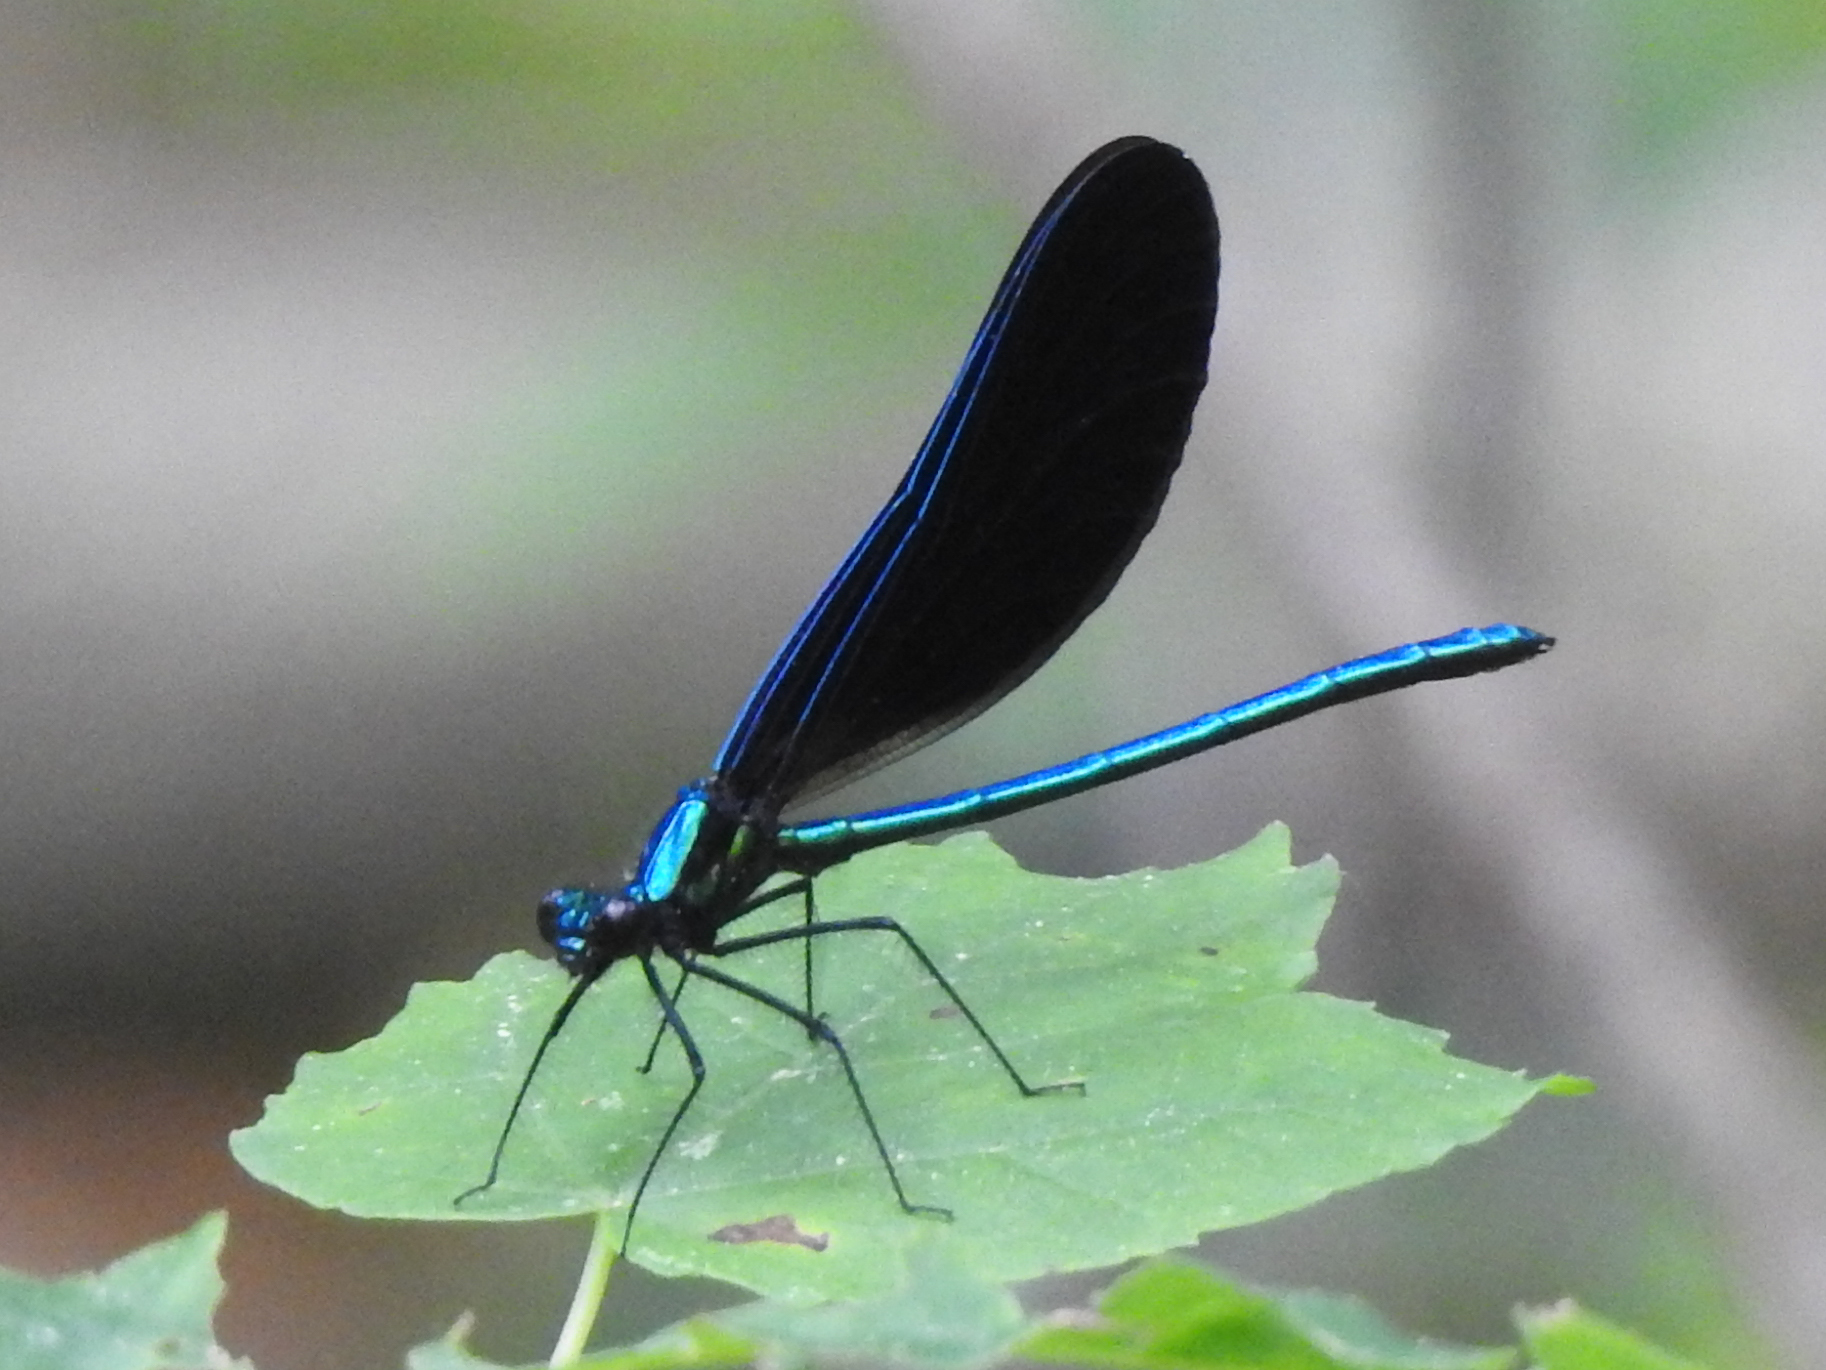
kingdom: Animalia
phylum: Arthropoda
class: Insecta
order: Odonata
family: Calopterygidae
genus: Calopteryx
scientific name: Calopteryx maculata
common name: Ebony jewelwing
